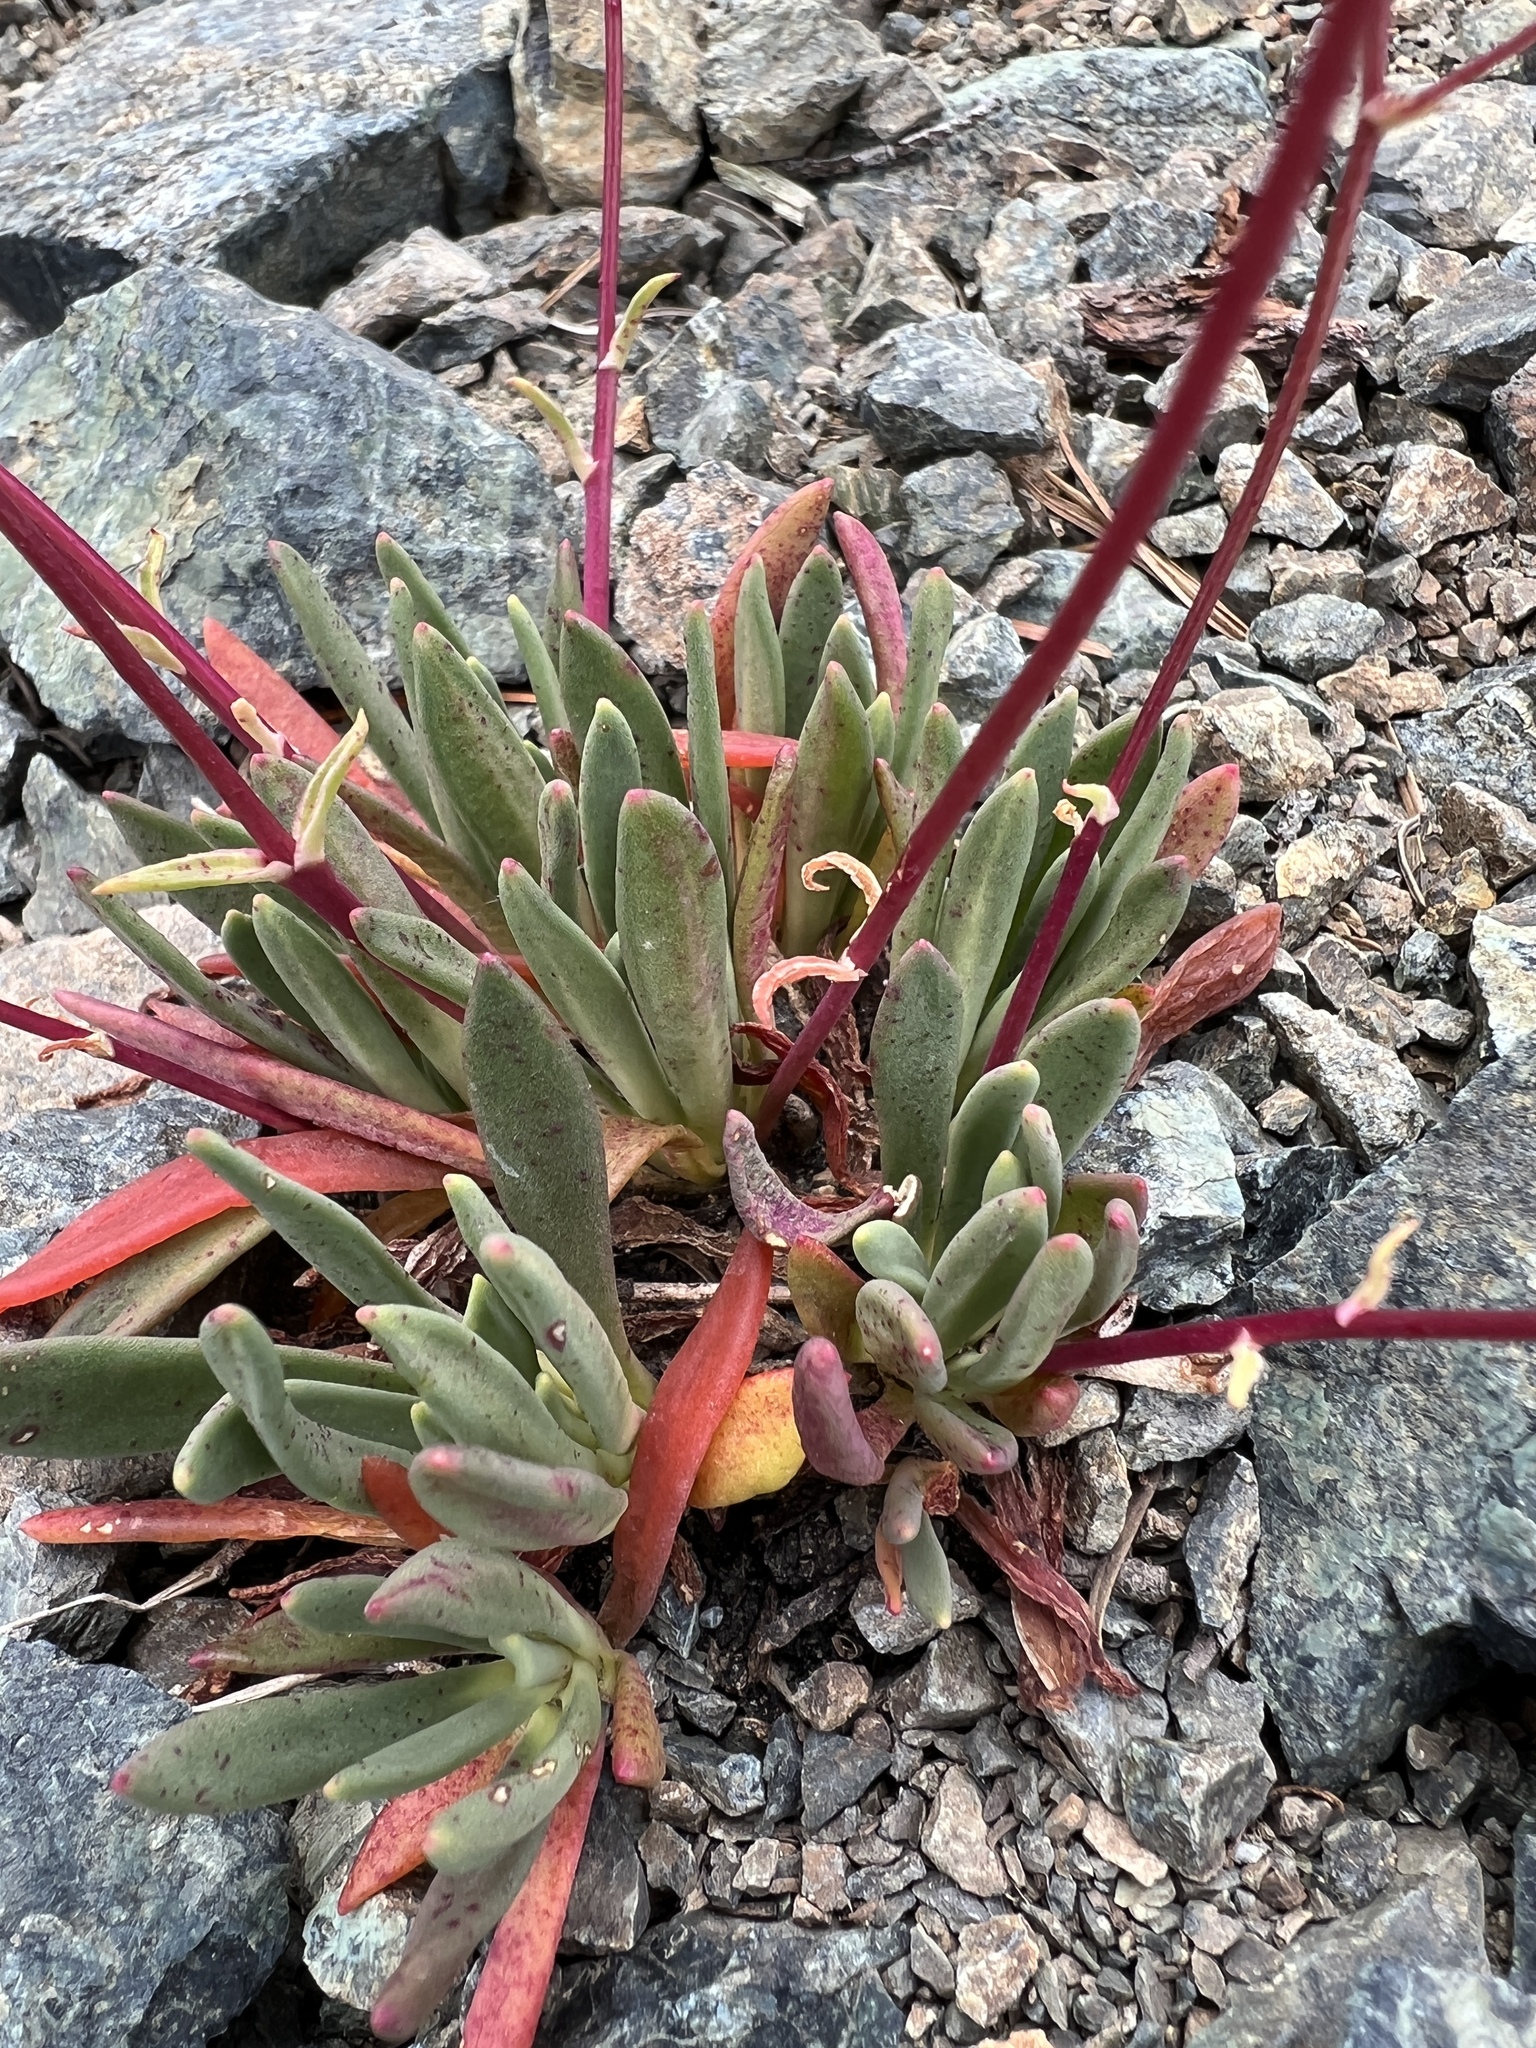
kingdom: Plantae
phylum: Tracheophyta
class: Magnoliopsida
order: Caryophyllales
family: Montiaceae
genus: Lewisia
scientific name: Lewisia columbiana
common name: Columbia lewisia
